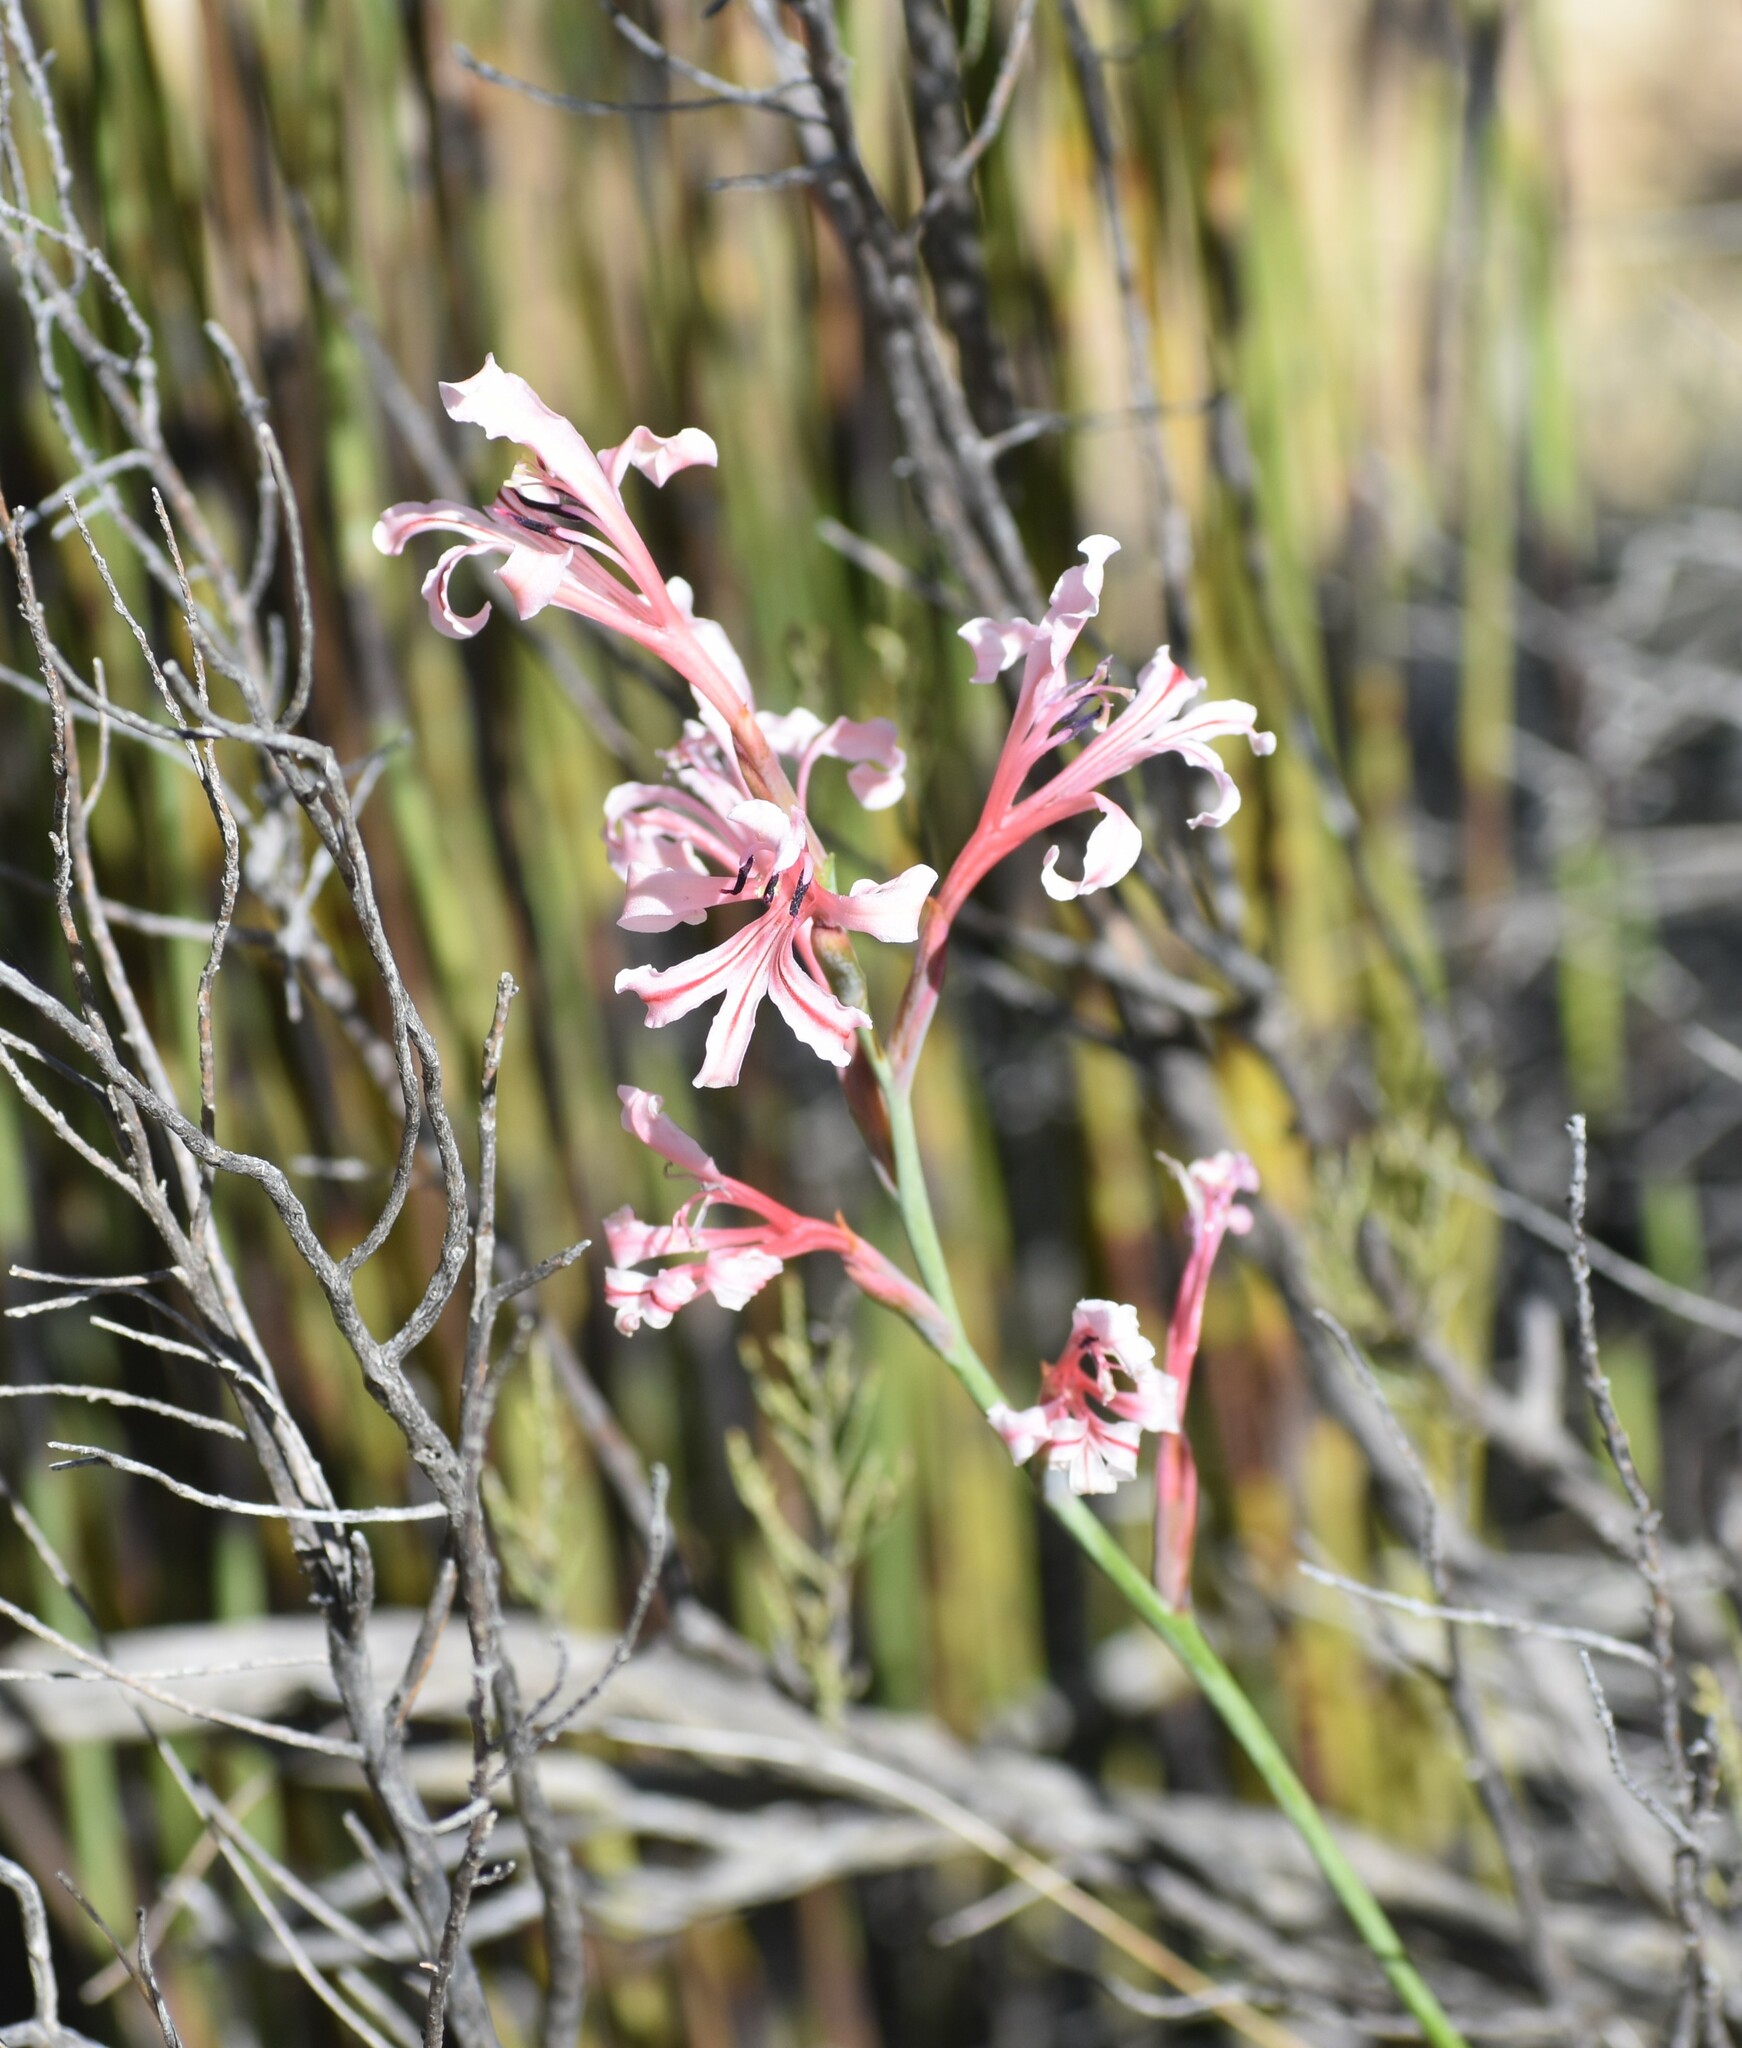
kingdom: Plantae
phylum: Tracheophyta
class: Liliopsida
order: Asparagales
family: Iridaceae
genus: Tritoniopsis
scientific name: Tritoniopsis ramosa
